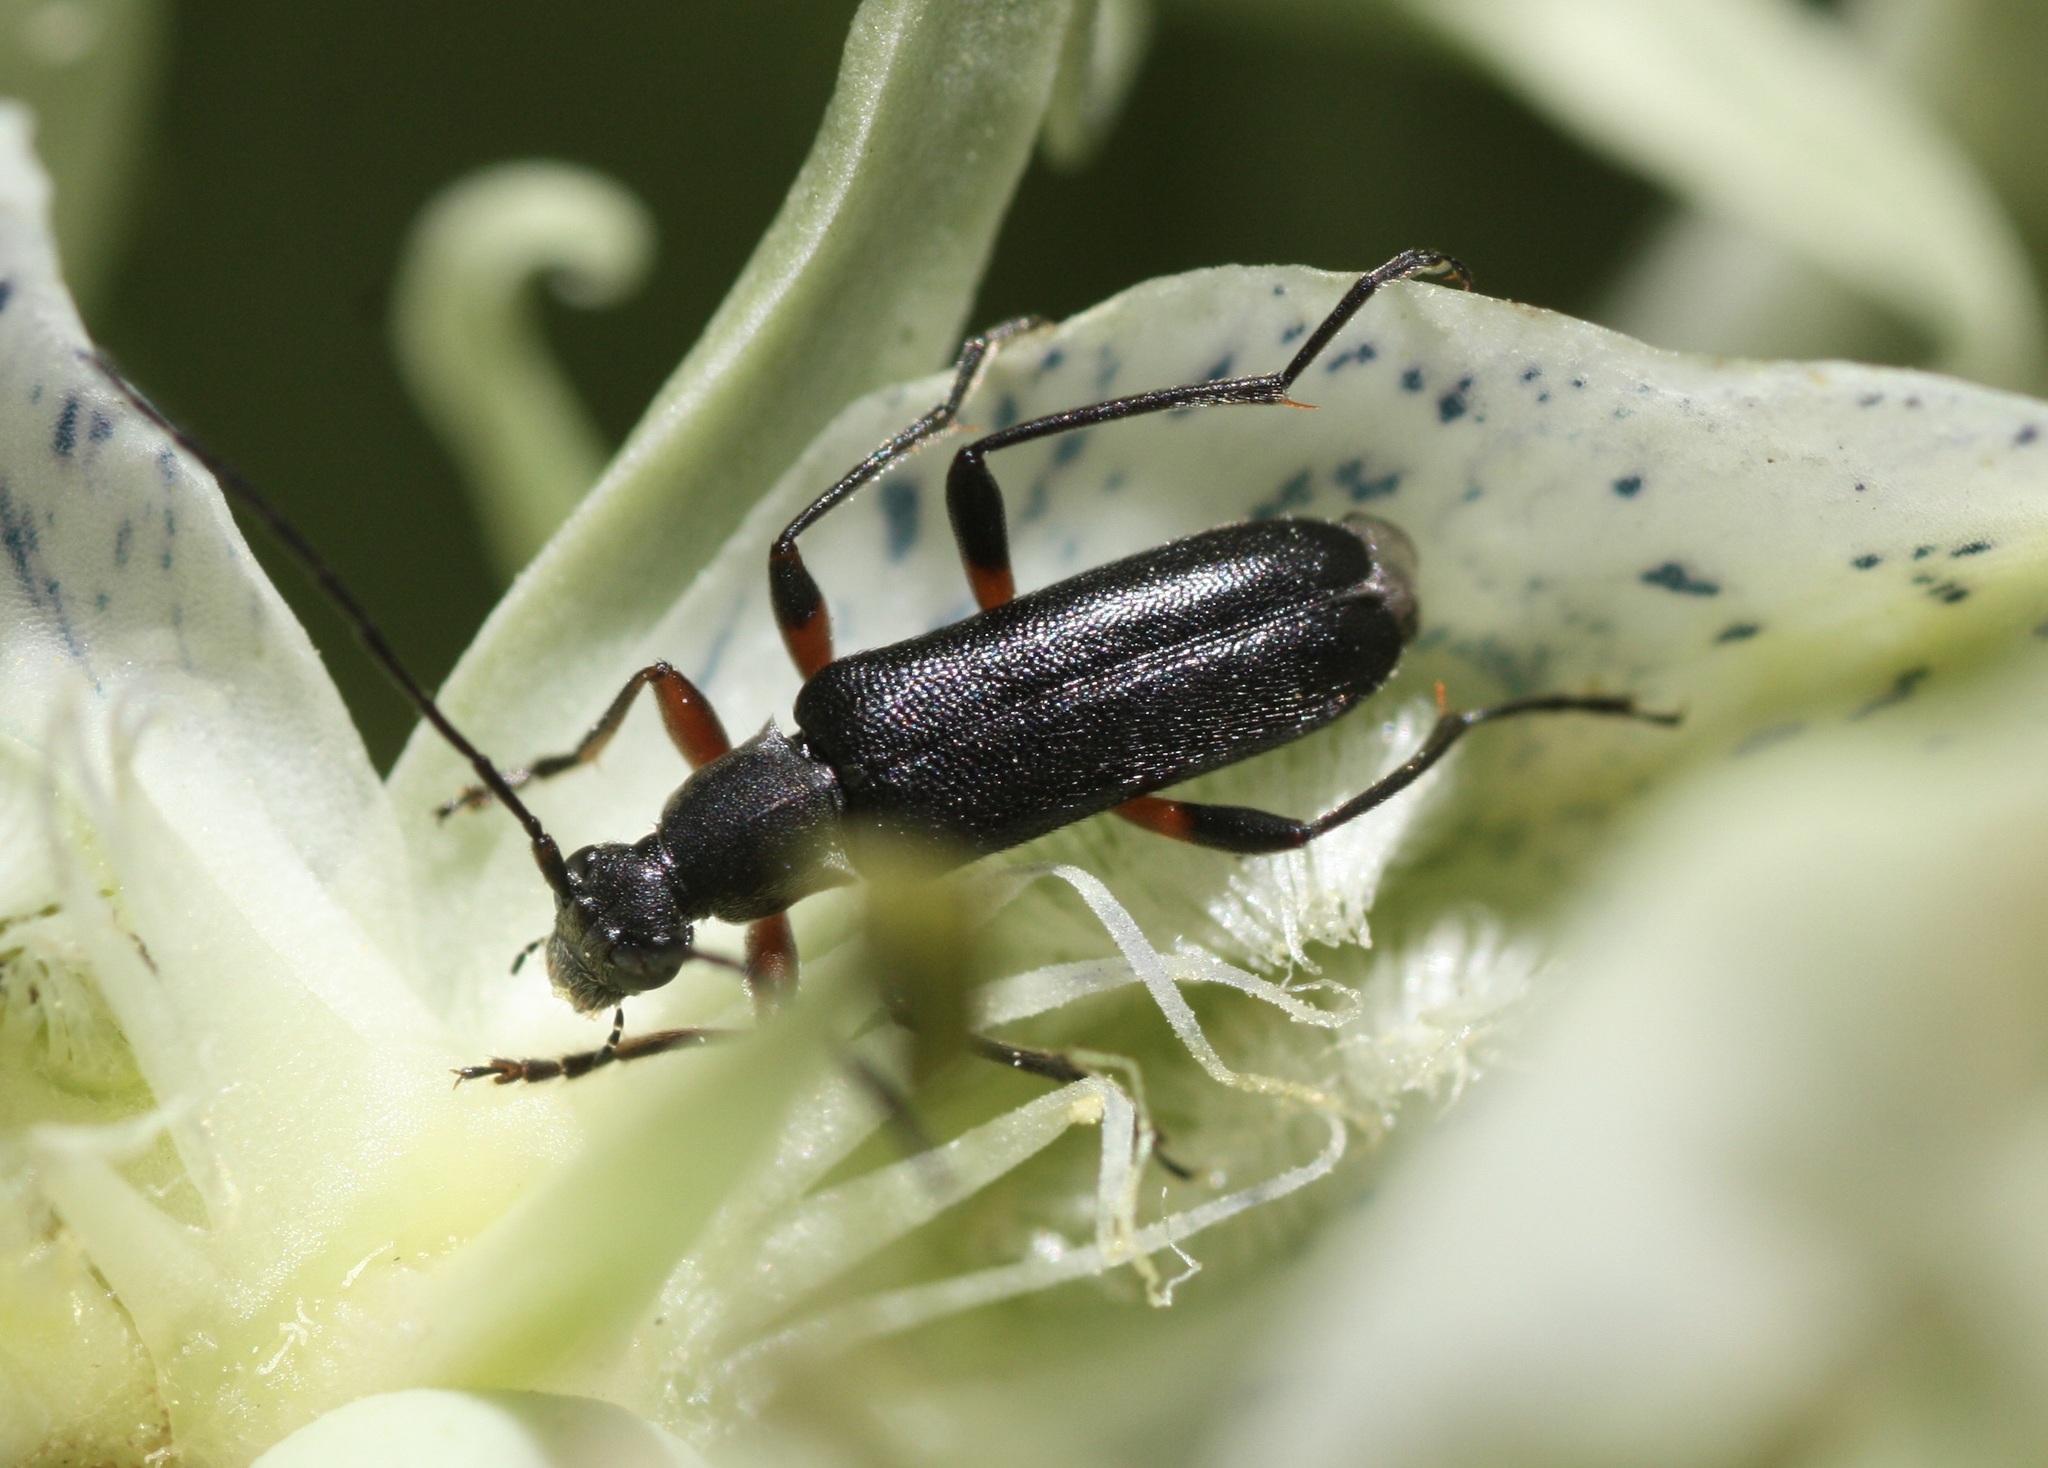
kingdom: Animalia
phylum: Arthropoda
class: Insecta
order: Coleoptera
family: Cerambycidae
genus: Idiopidonia
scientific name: Idiopidonia pedalis
